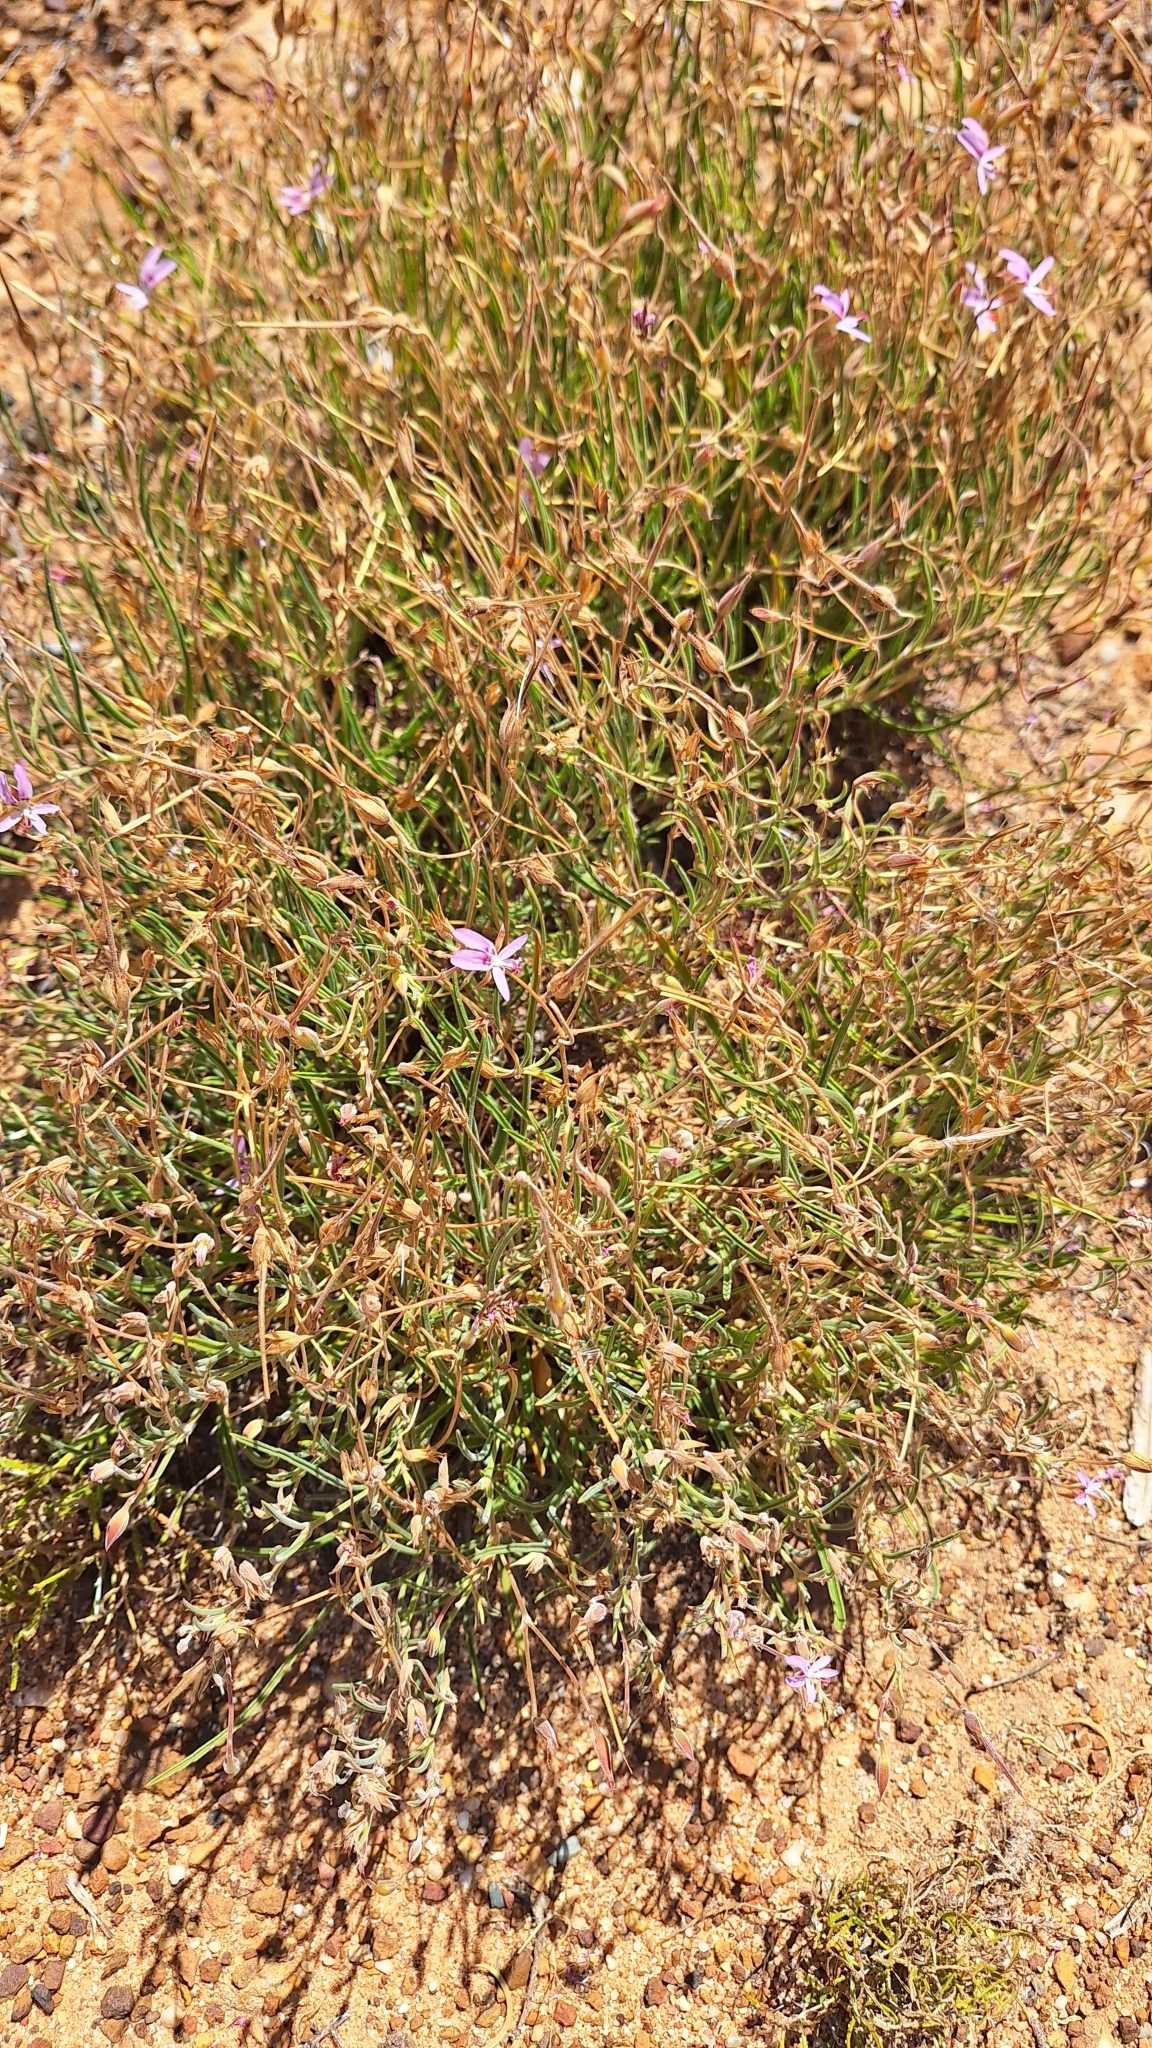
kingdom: Plantae
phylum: Tracheophyta
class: Magnoliopsida
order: Geraniales
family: Geraniaceae
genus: Pelargonium
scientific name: Pelargonium coronopifolium
